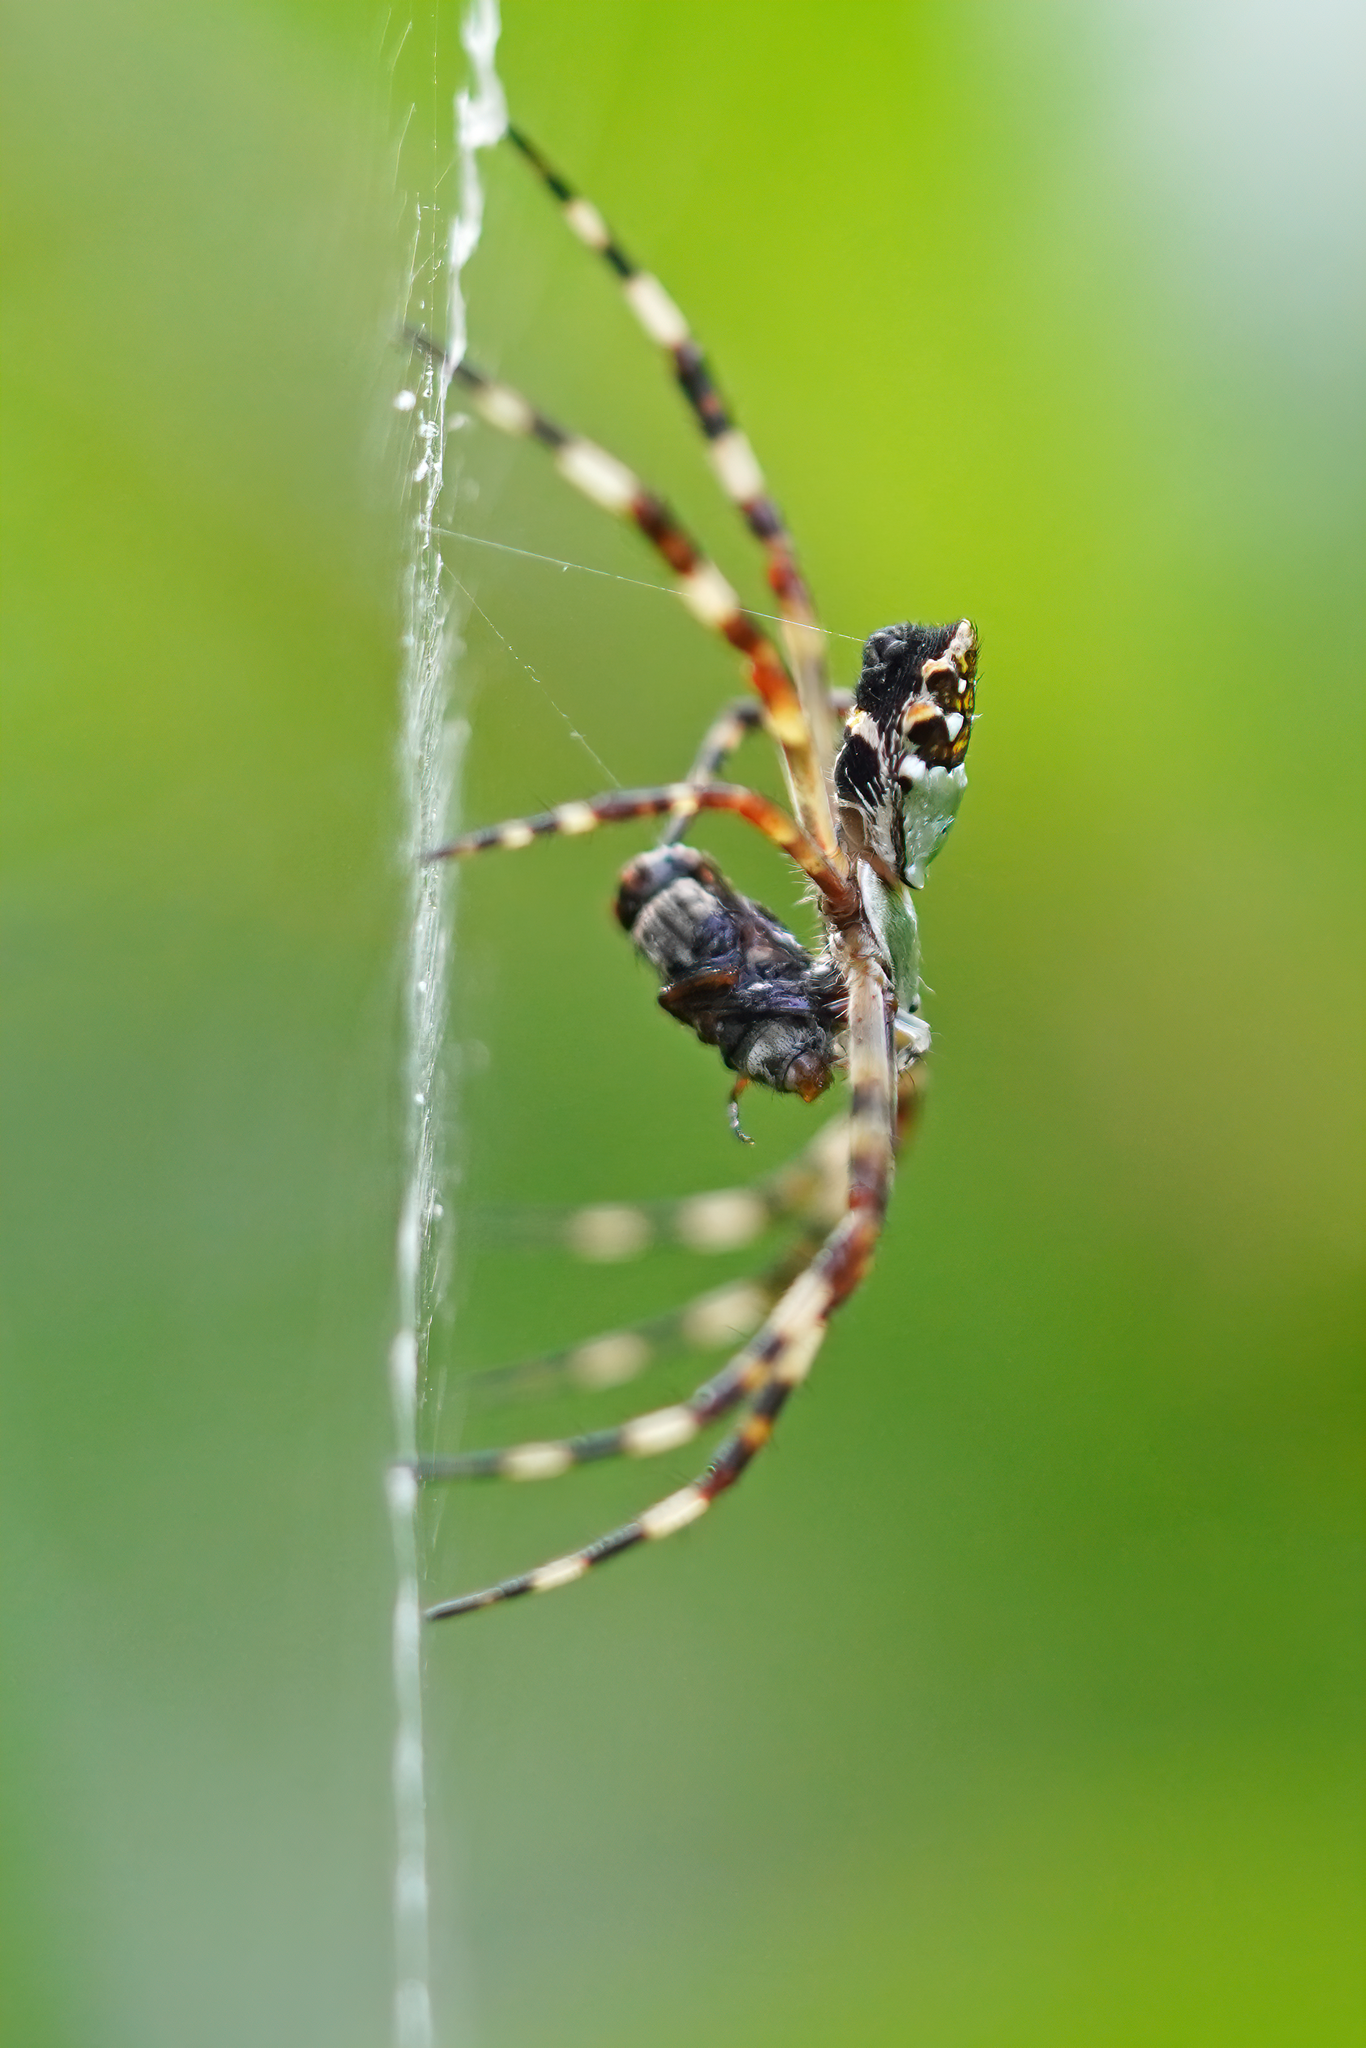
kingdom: Animalia
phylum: Arthropoda
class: Arachnida
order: Araneae
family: Araneidae
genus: Argiope
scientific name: Argiope argentata
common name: Orb weavers
